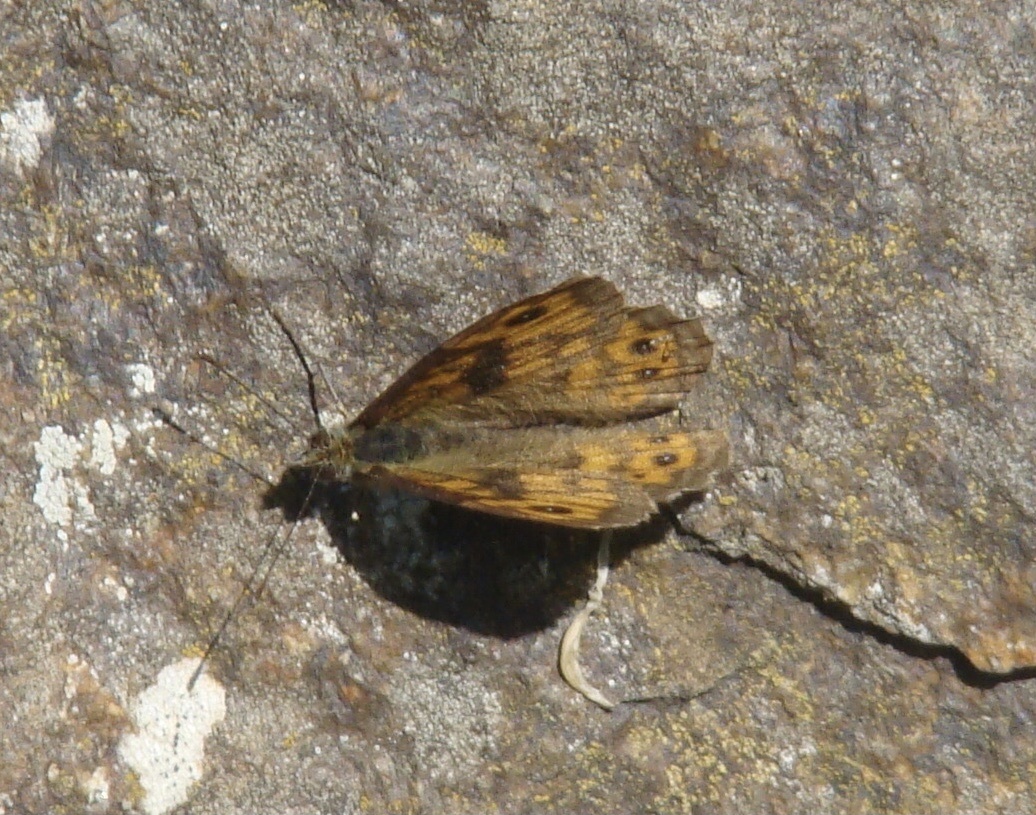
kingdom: Animalia
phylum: Arthropoda
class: Insecta
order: Lepidoptera
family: Nymphalidae
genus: Pararge
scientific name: Pararge Lasiommata megera
